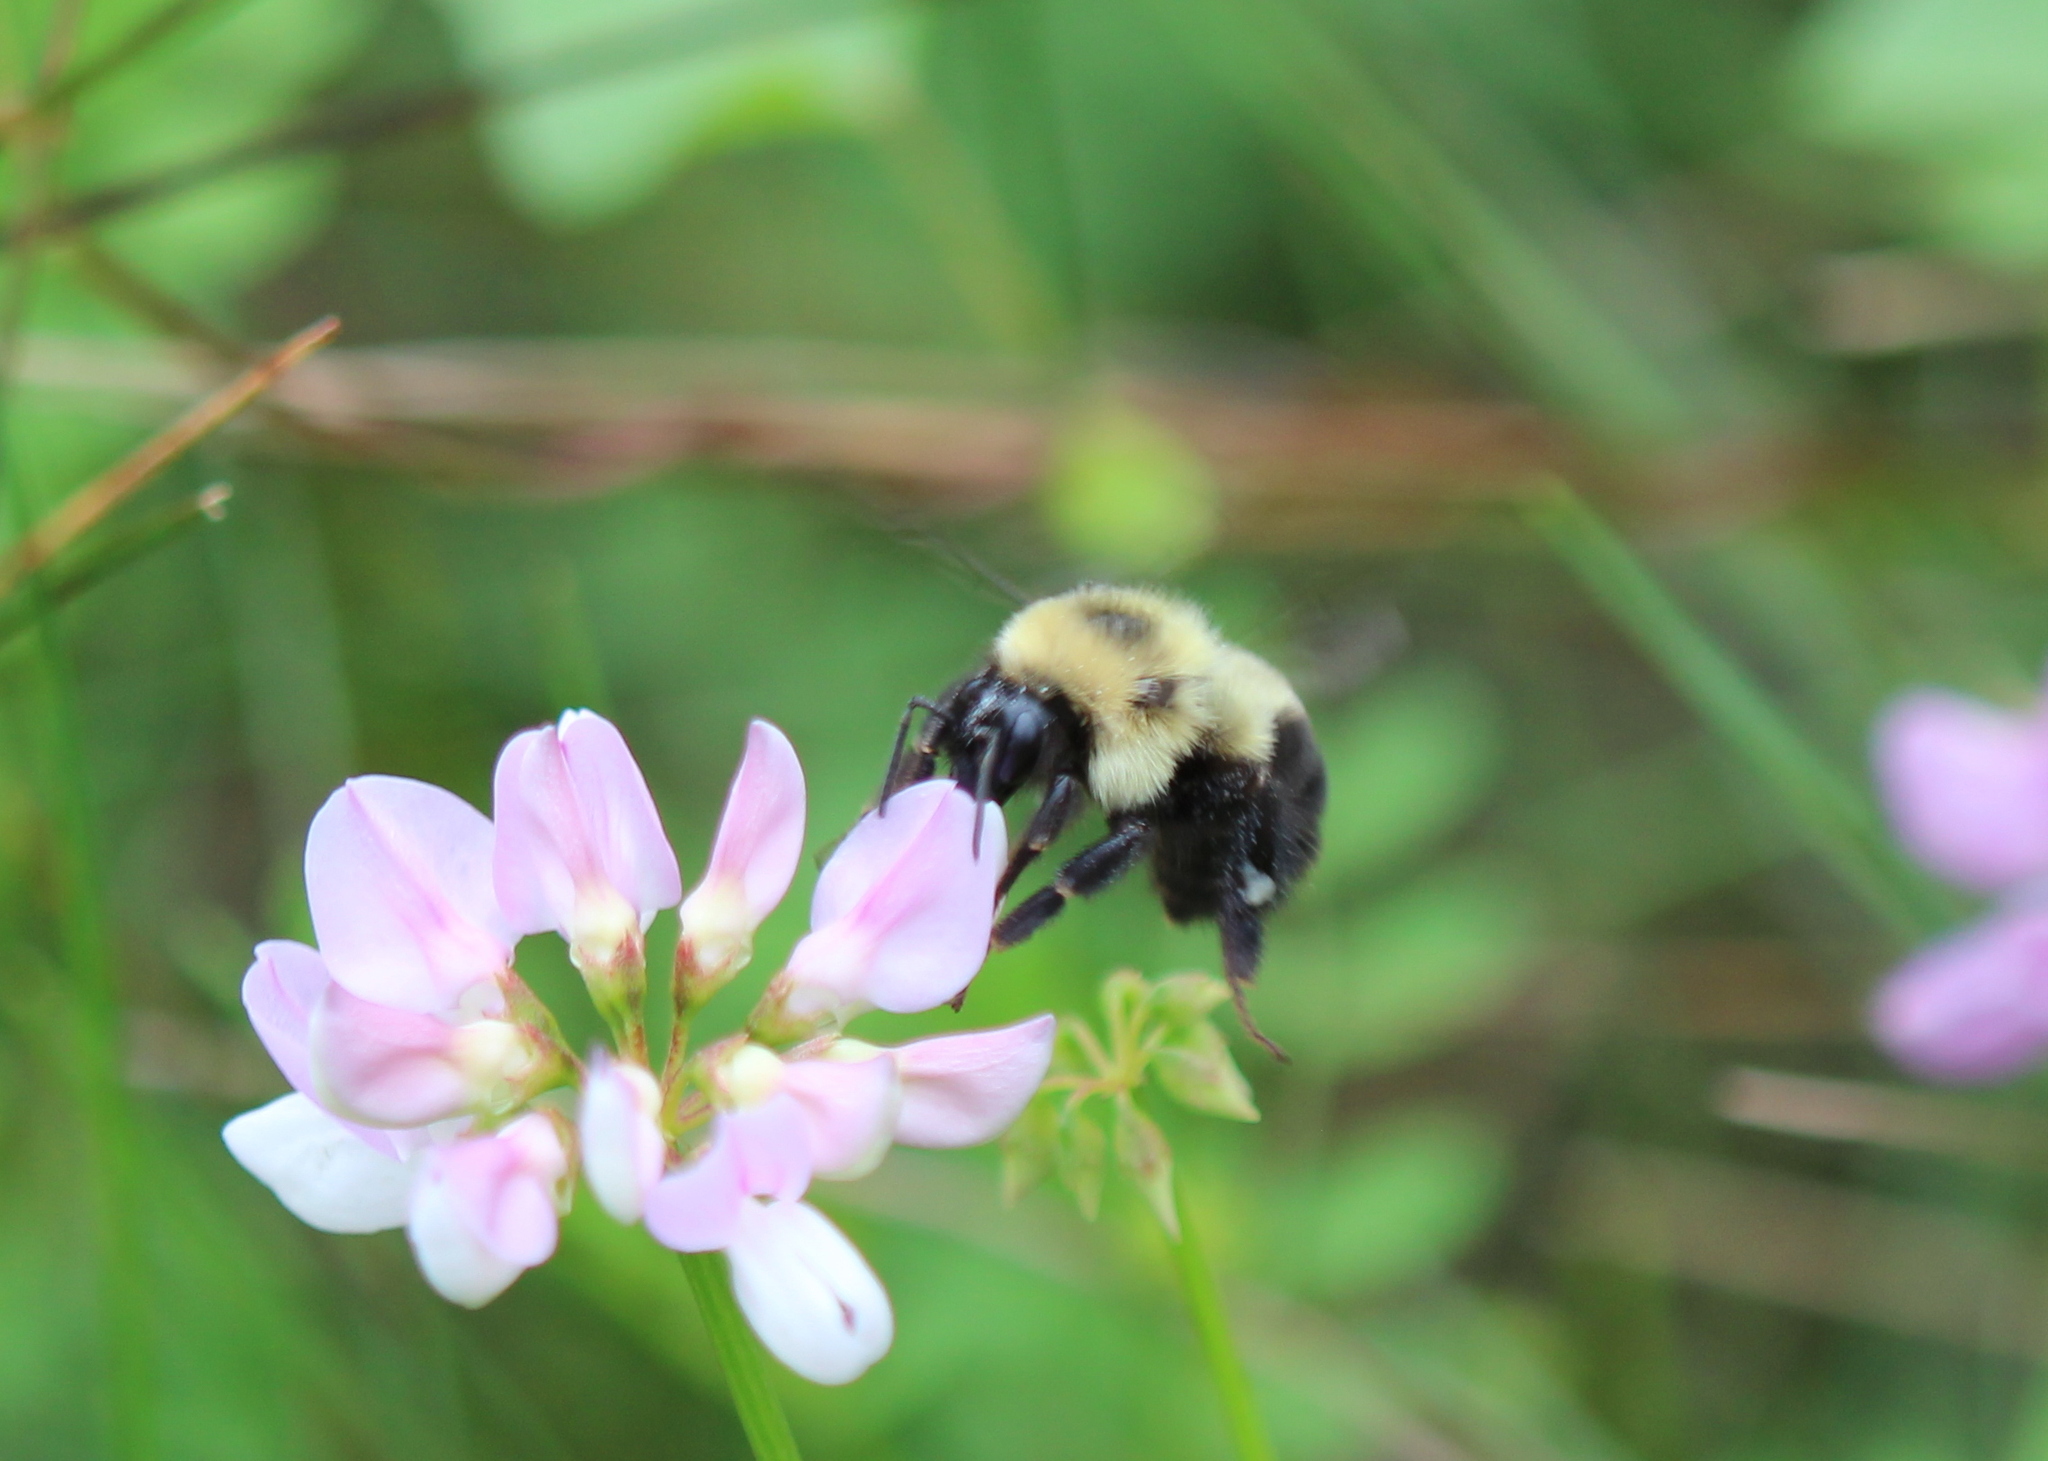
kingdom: Animalia
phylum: Arthropoda
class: Insecta
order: Hymenoptera
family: Apidae
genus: Bombus
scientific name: Bombus bimaculatus
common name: Two-spotted bumble bee
